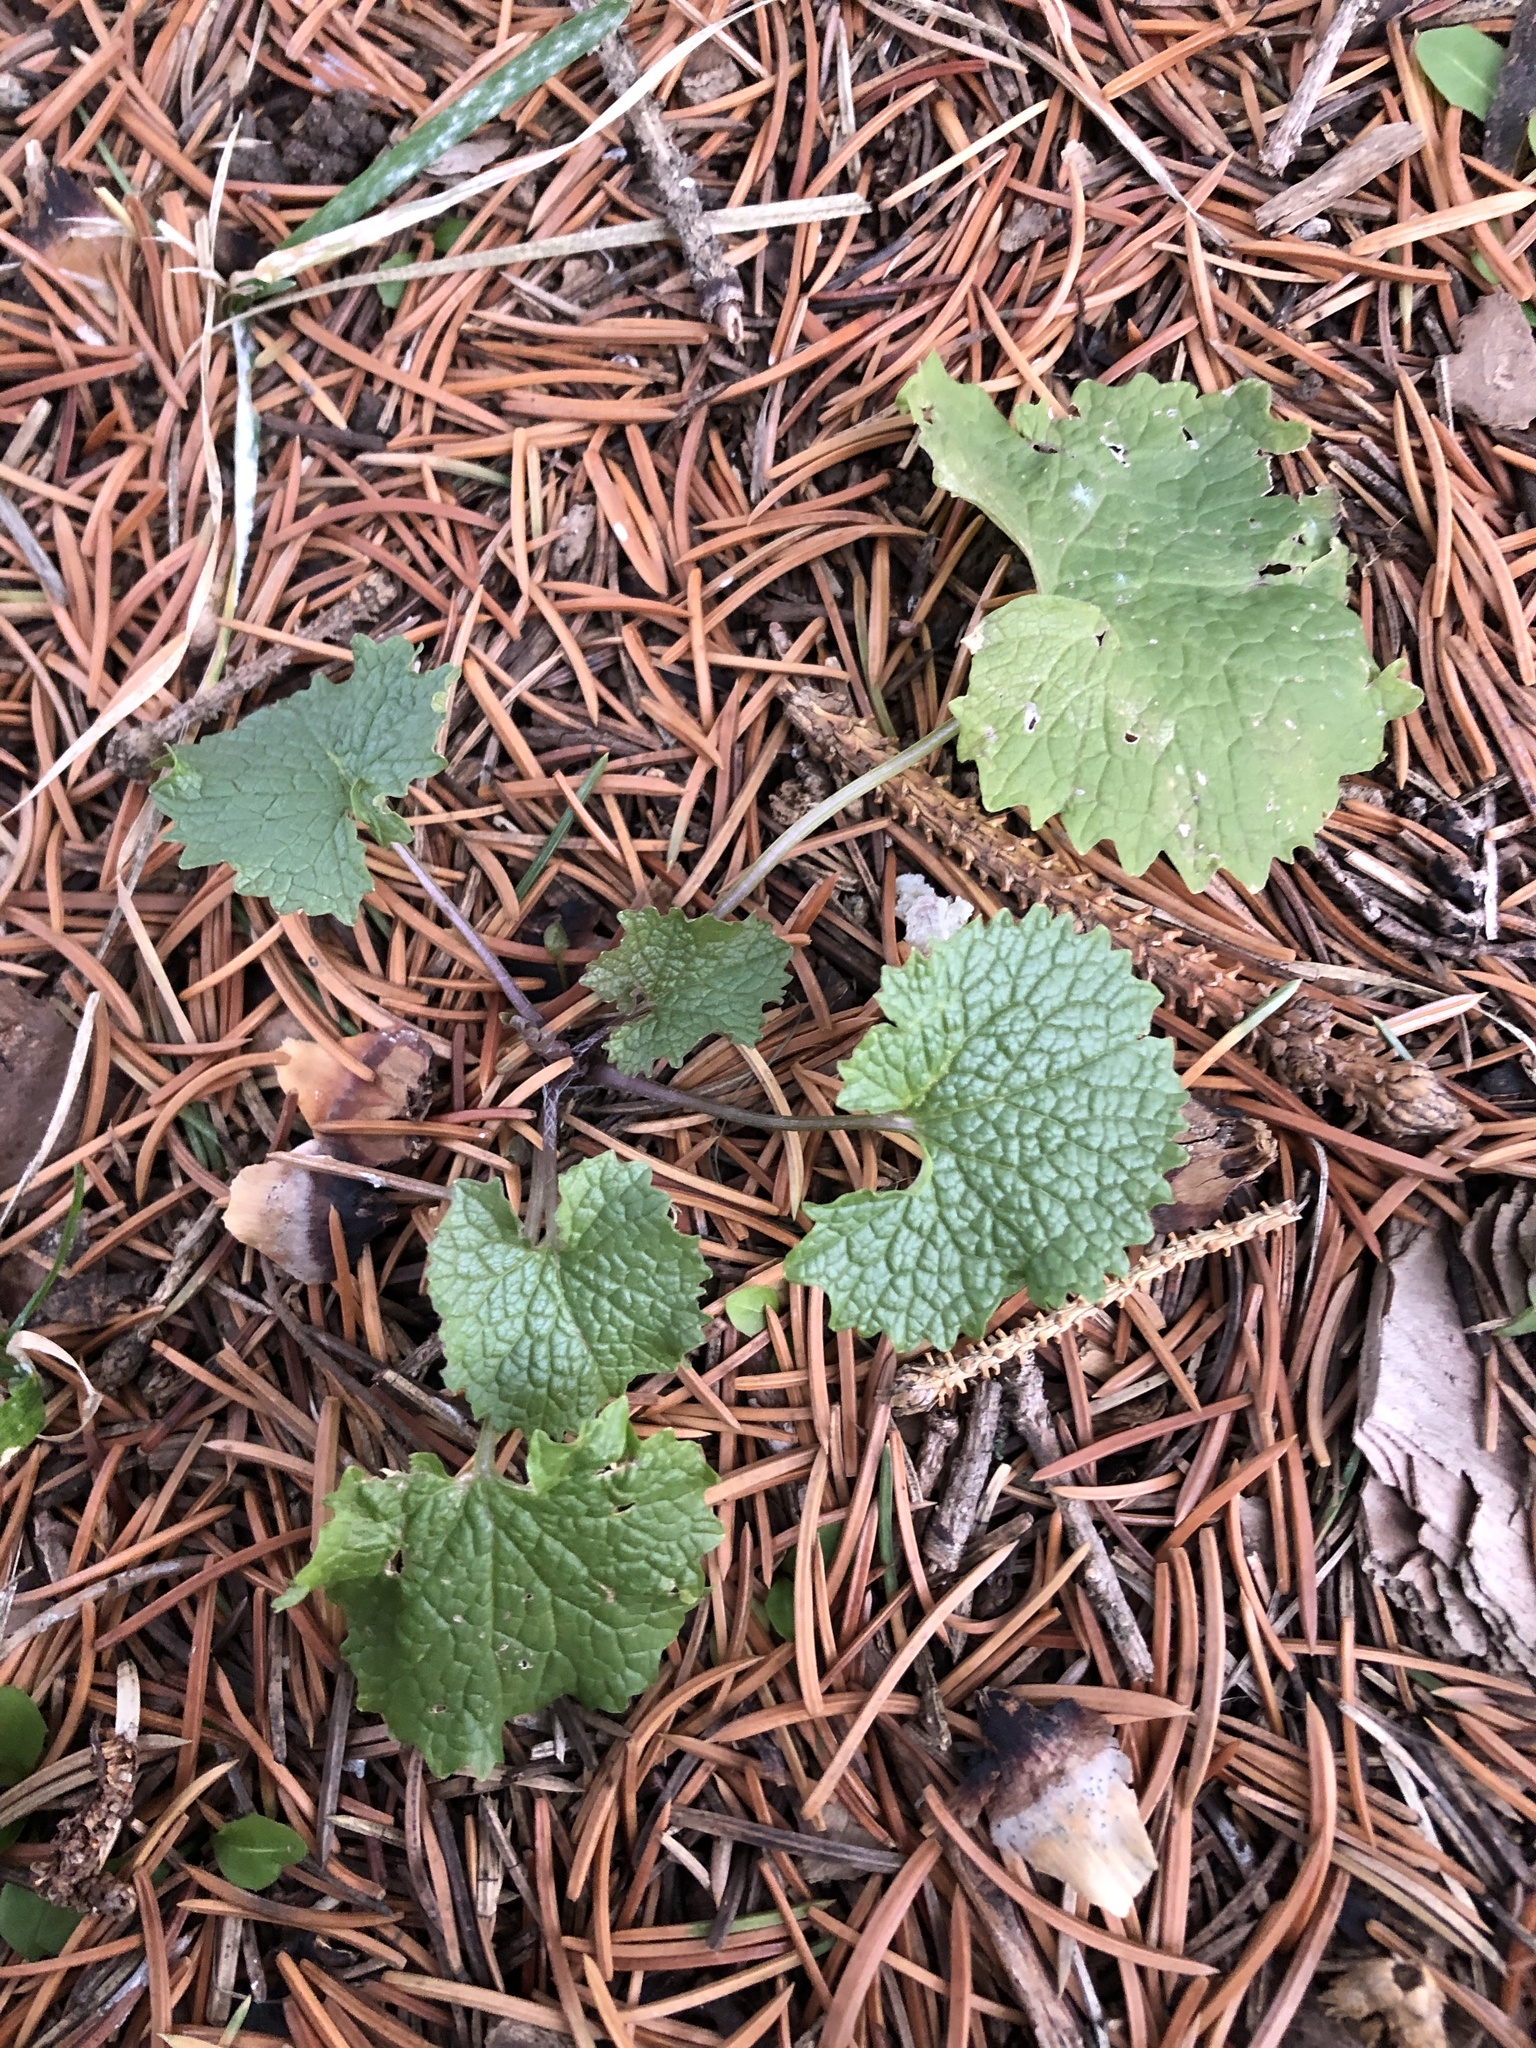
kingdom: Plantae
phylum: Tracheophyta
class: Magnoliopsida
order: Brassicales
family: Brassicaceae
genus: Alliaria
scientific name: Alliaria petiolata
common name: Garlic mustard
